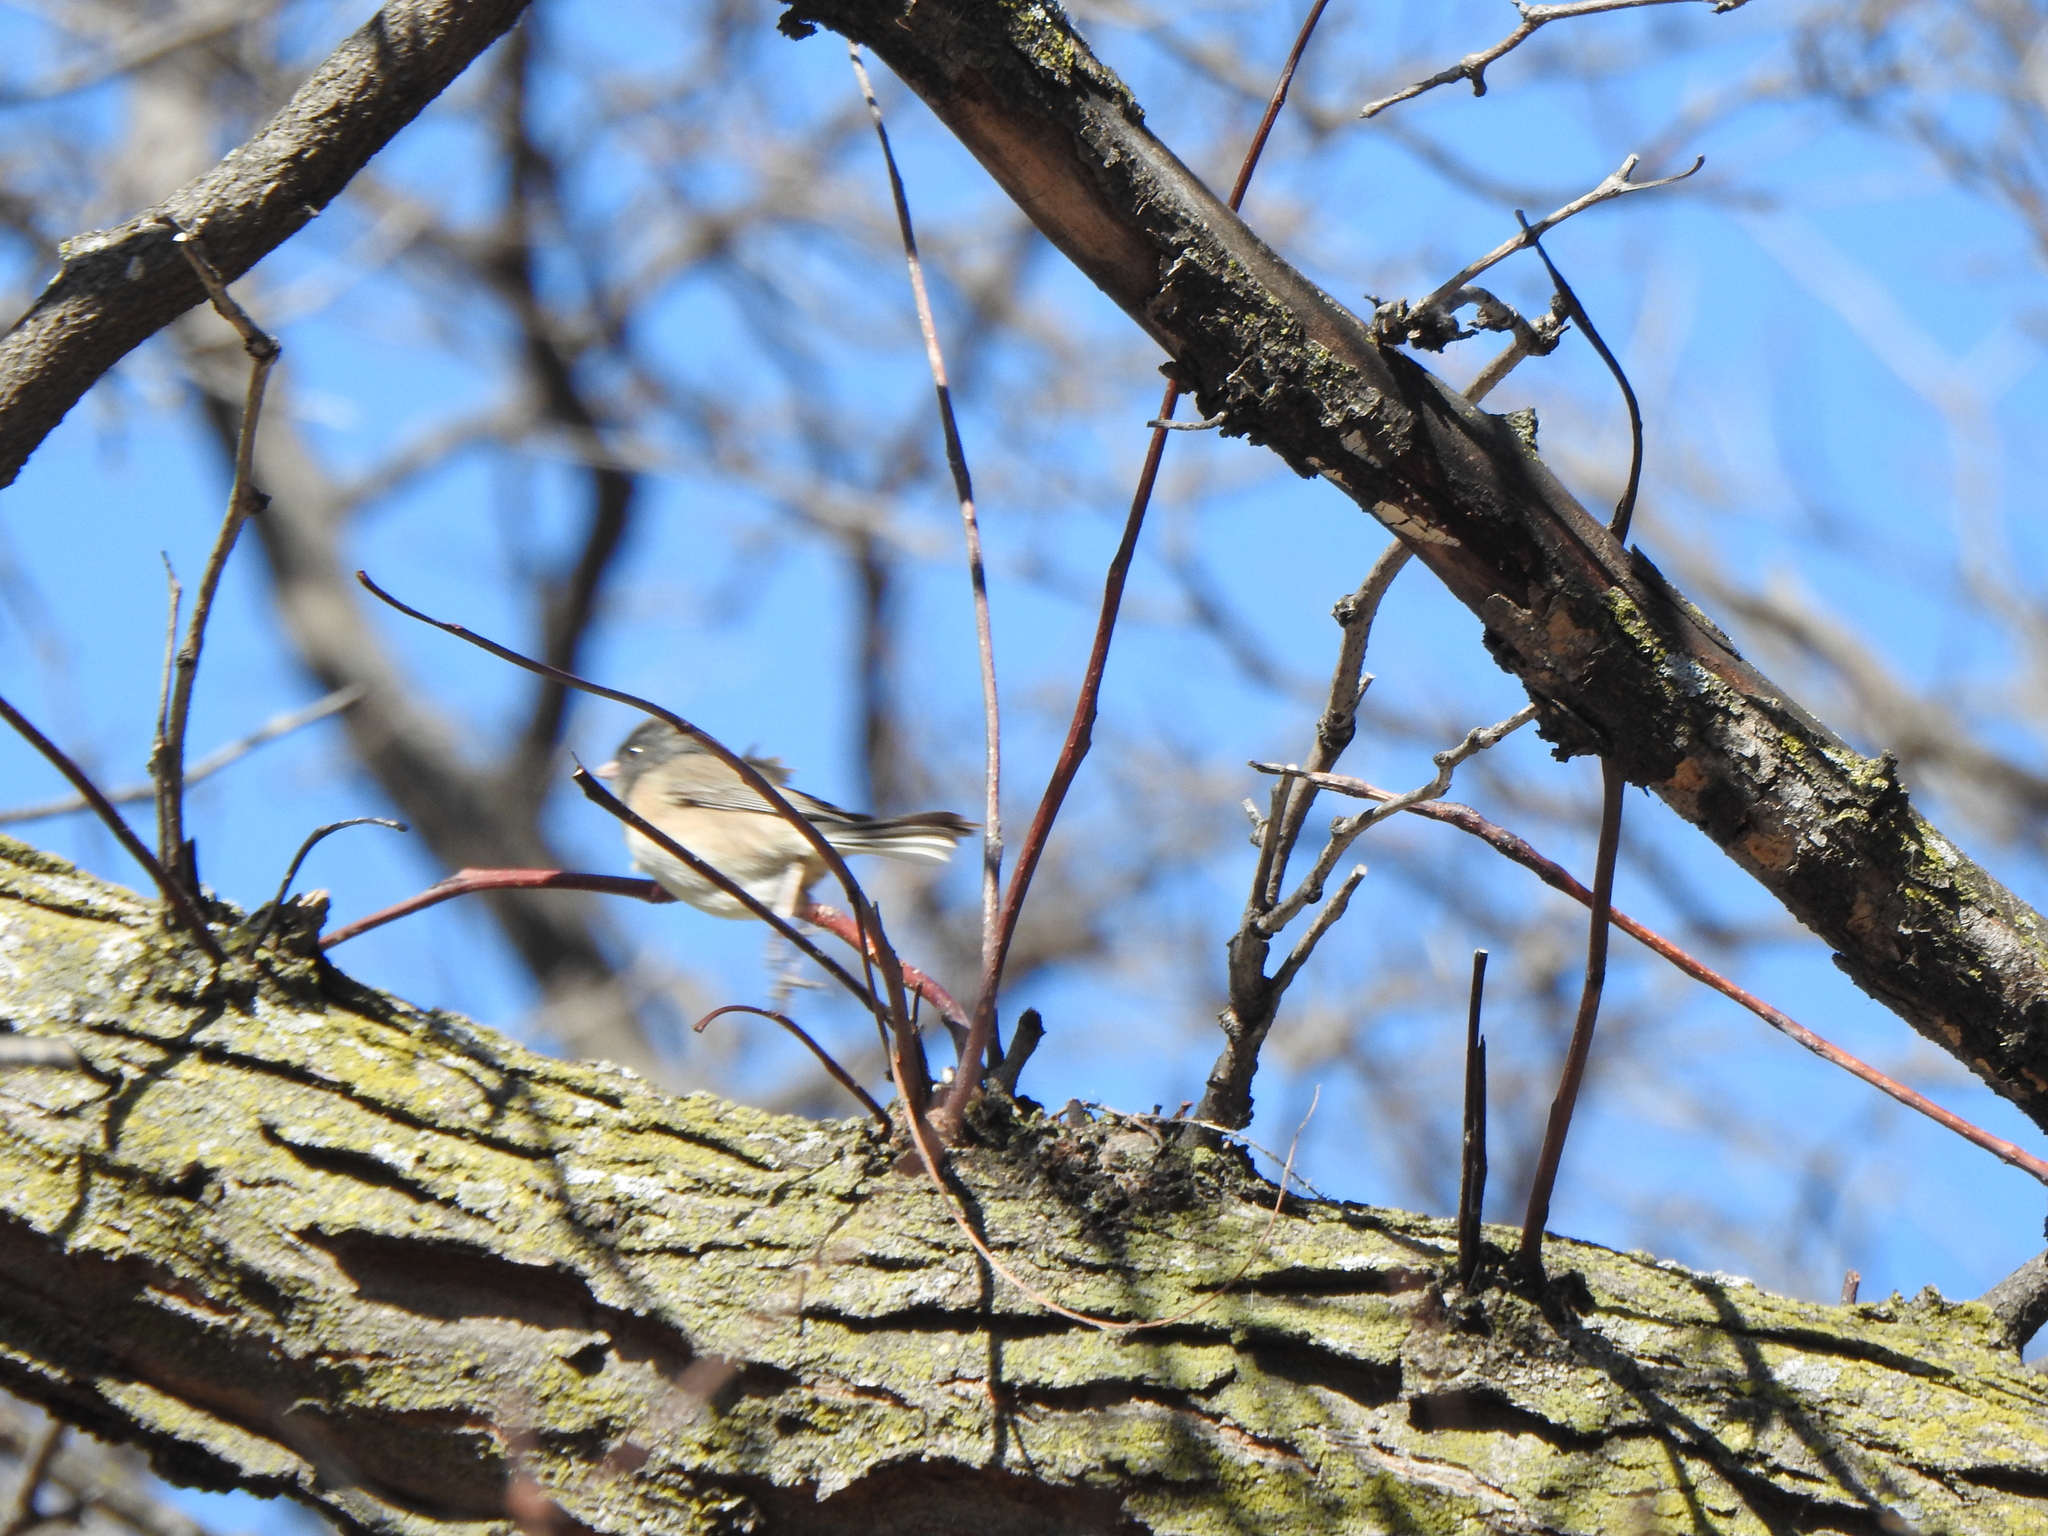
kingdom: Animalia
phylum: Chordata
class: Aves
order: Passeriformes
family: Passerellidae
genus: Junco
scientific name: Junco hyemalis
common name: Dark-eyed junco
